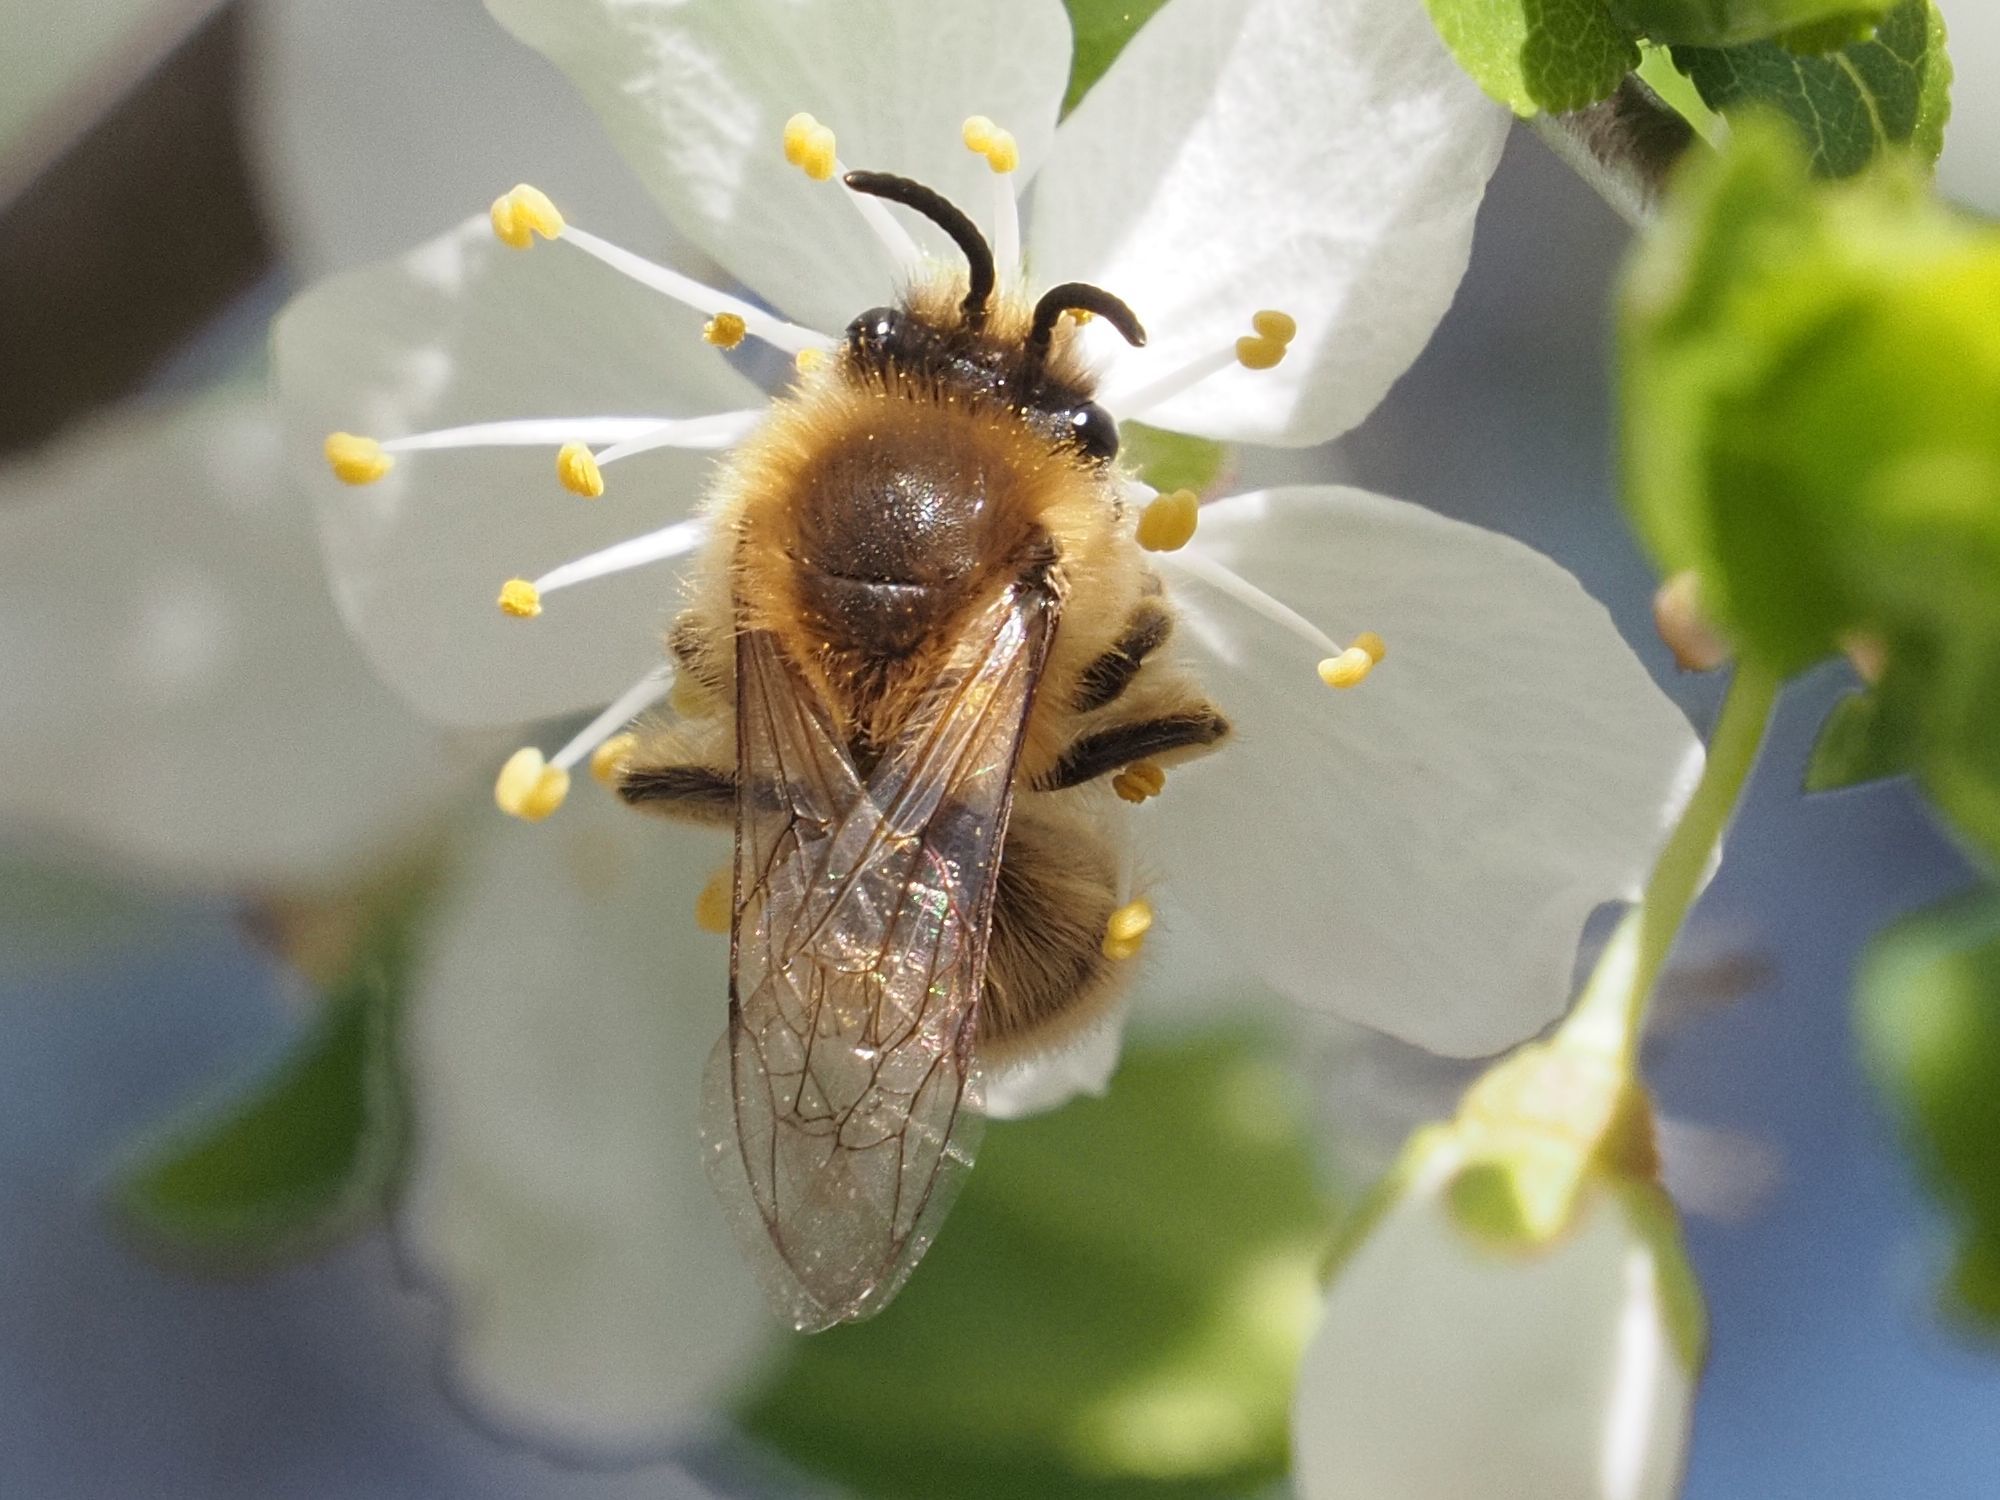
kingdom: Animalia
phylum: Arthropoda
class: Insecta
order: Hymenoptera
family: Colletidae
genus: Colletes
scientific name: Colletes cunicularius
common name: Early colletes
